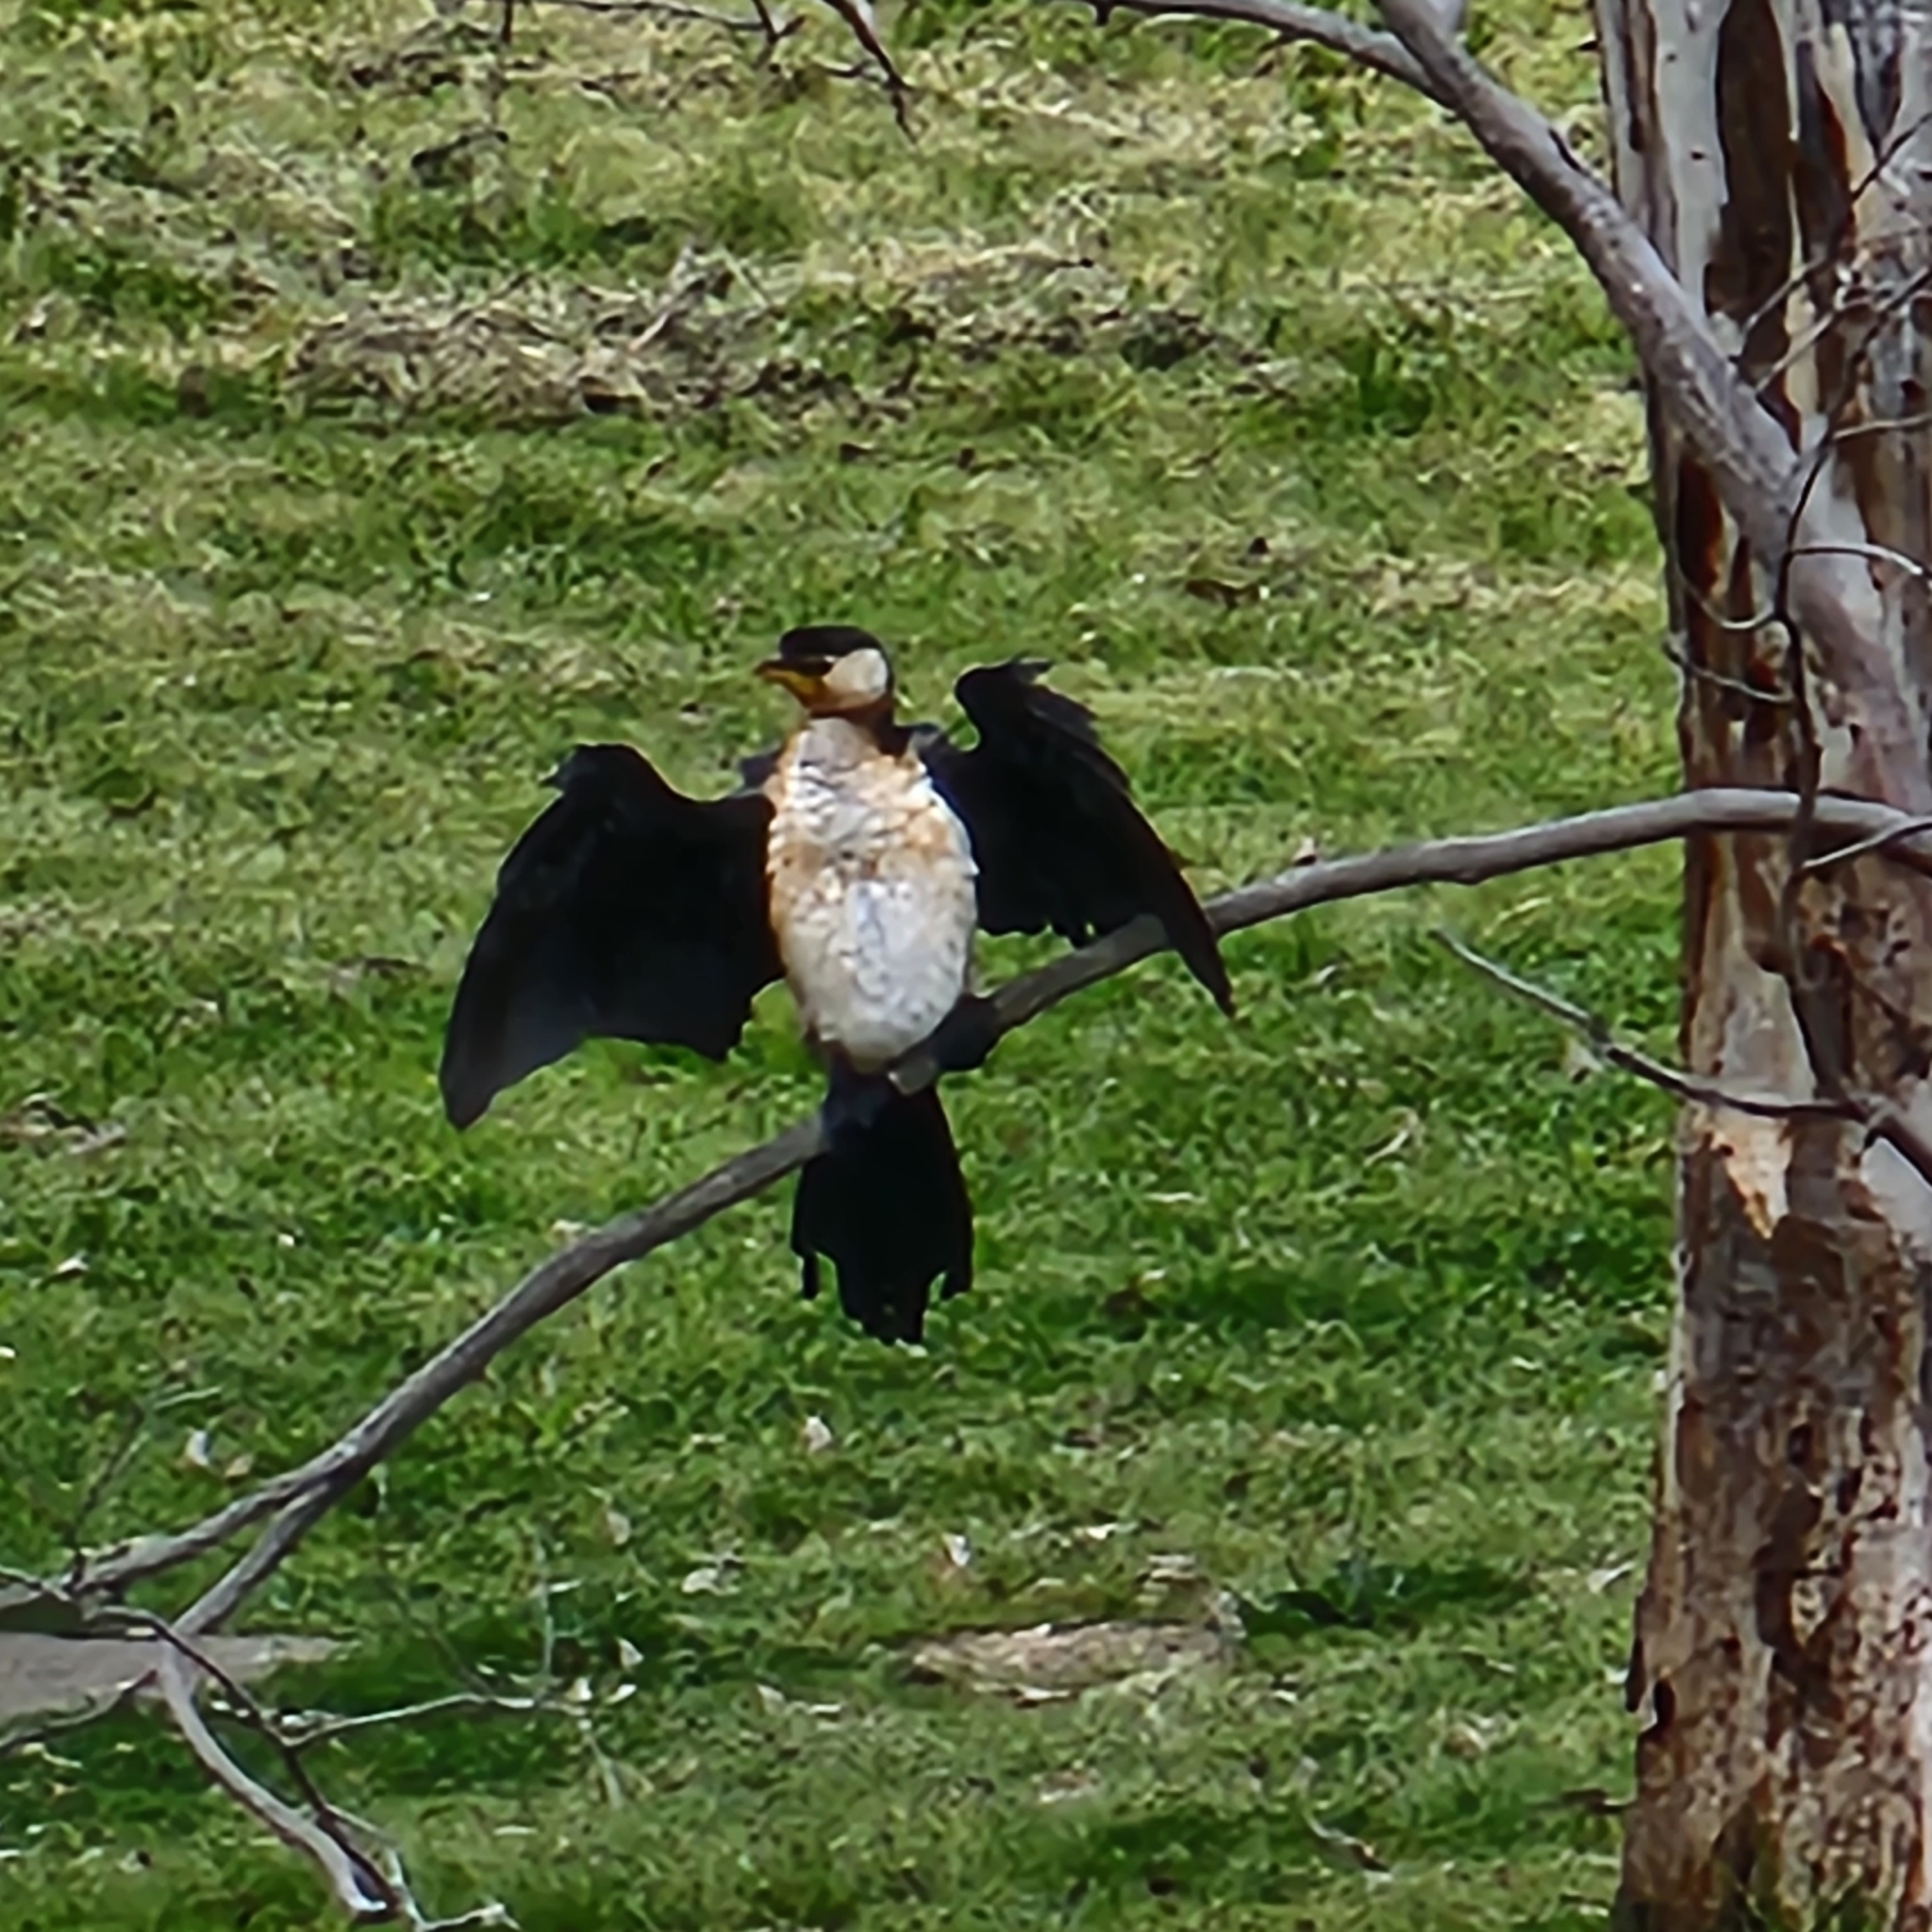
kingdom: Animalia
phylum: Chordata
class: Aves
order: Suliformes
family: Phalacrocoracidae
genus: Microcarbo
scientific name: Microcarbo melanoleucos
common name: Little pied cormorant
